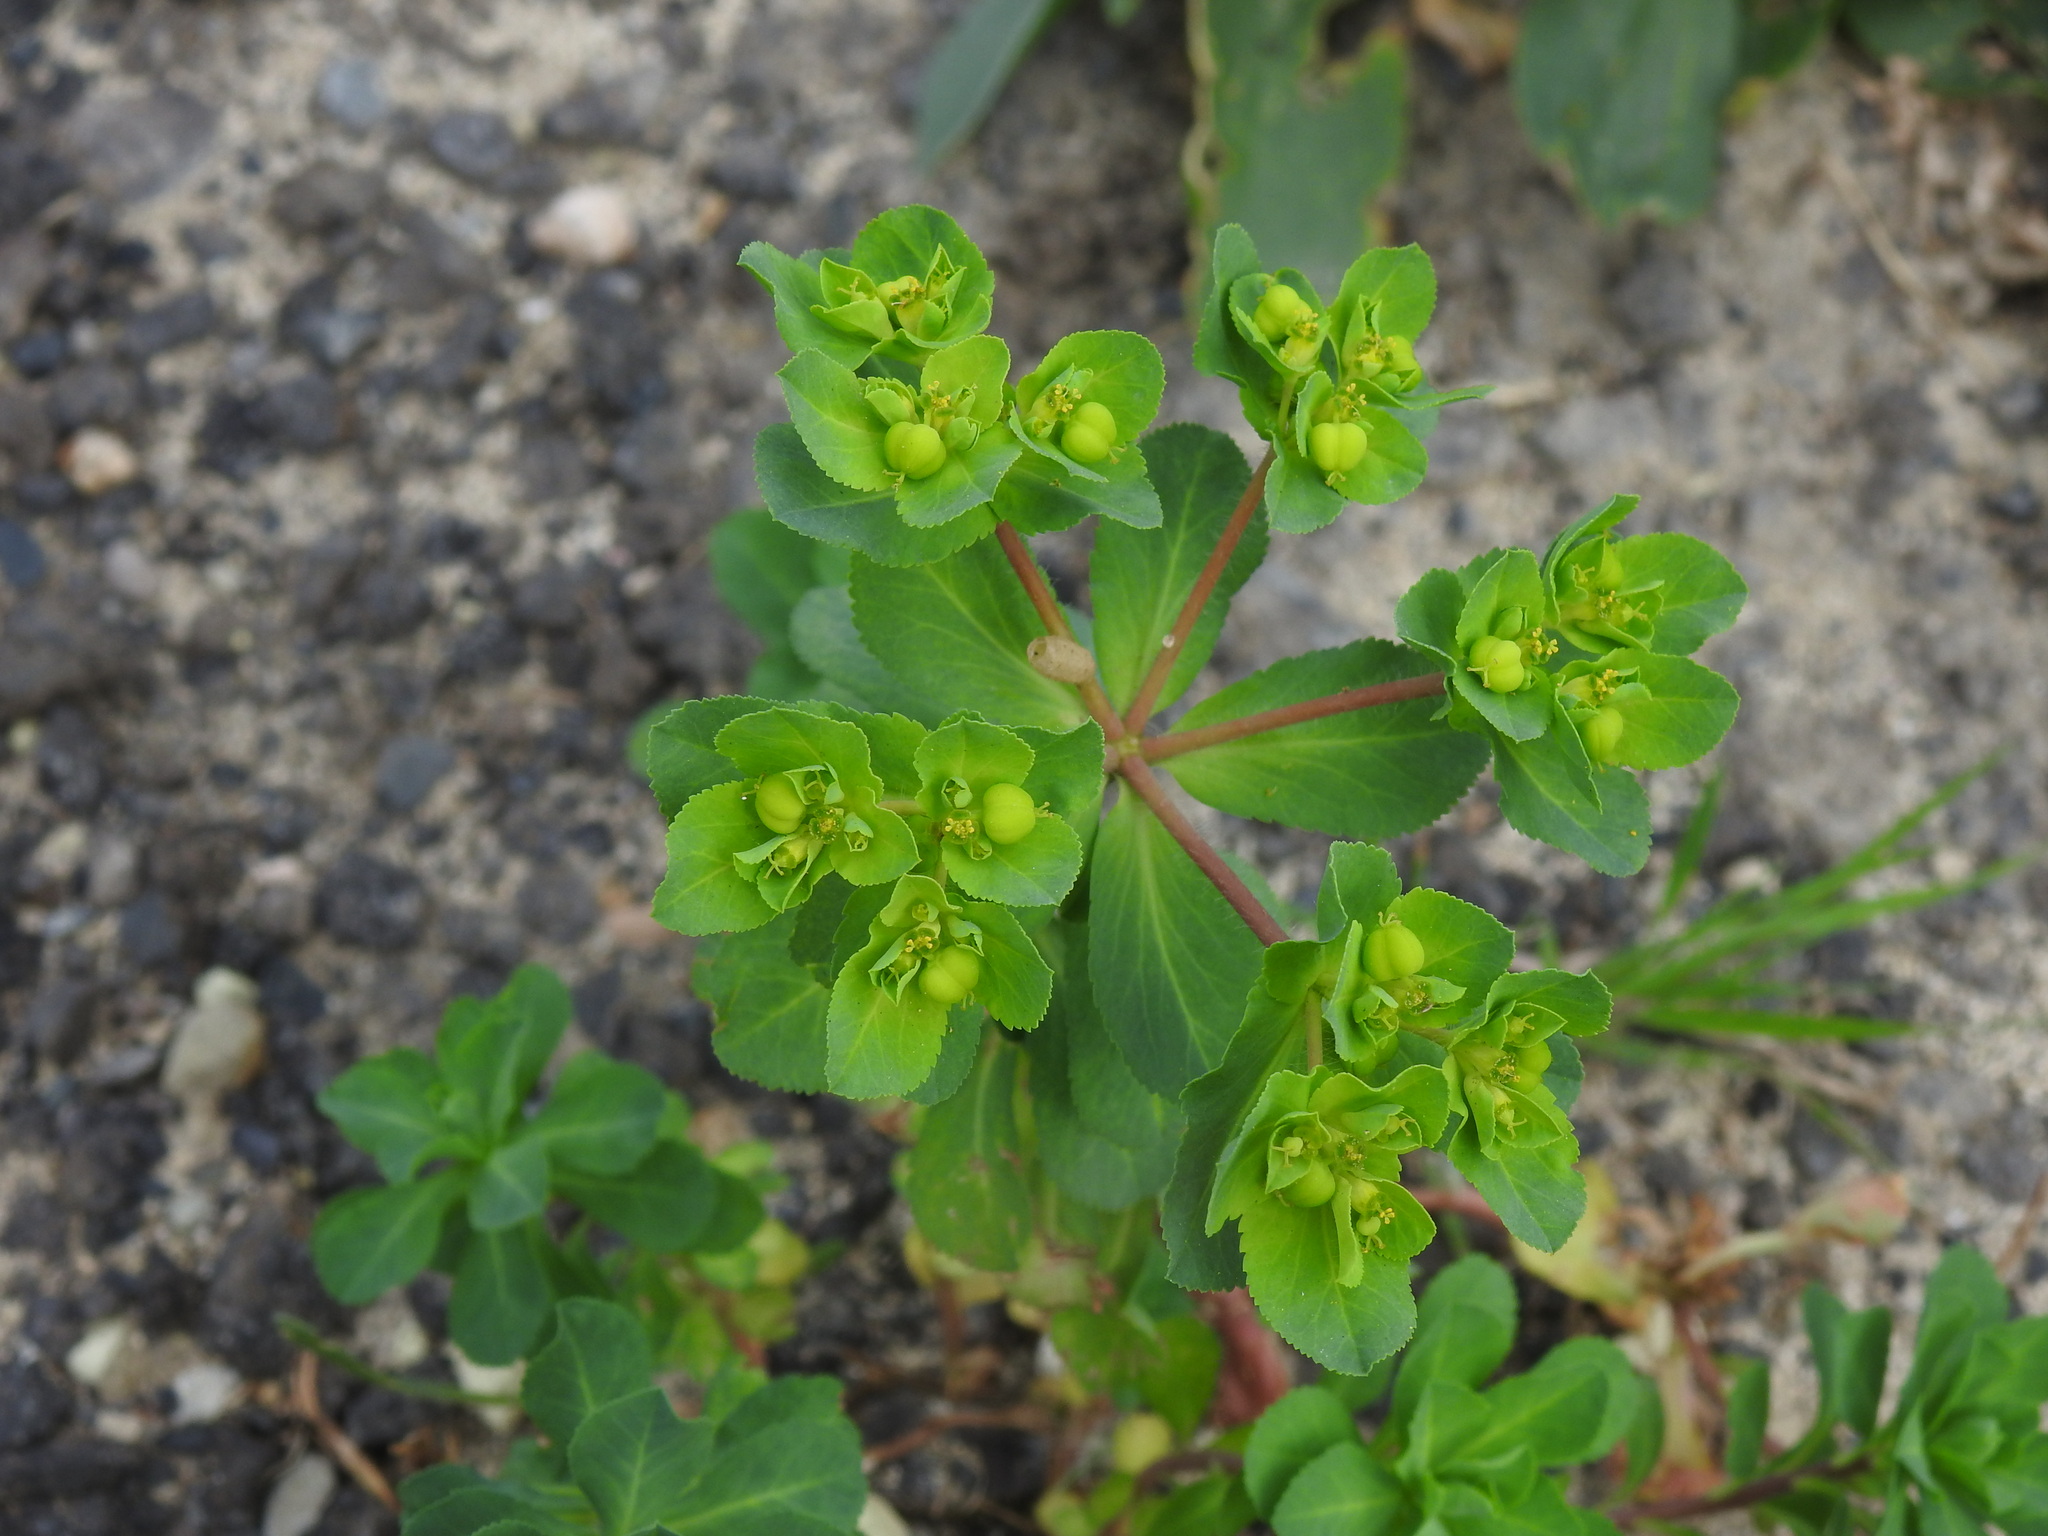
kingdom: Plantae
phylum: Tracheophyta
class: Magnoliopsida
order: Malpighiales
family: Euphorbiaceae
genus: Euphorbia
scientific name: Euphorbia helioscopia
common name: Sun spurge
